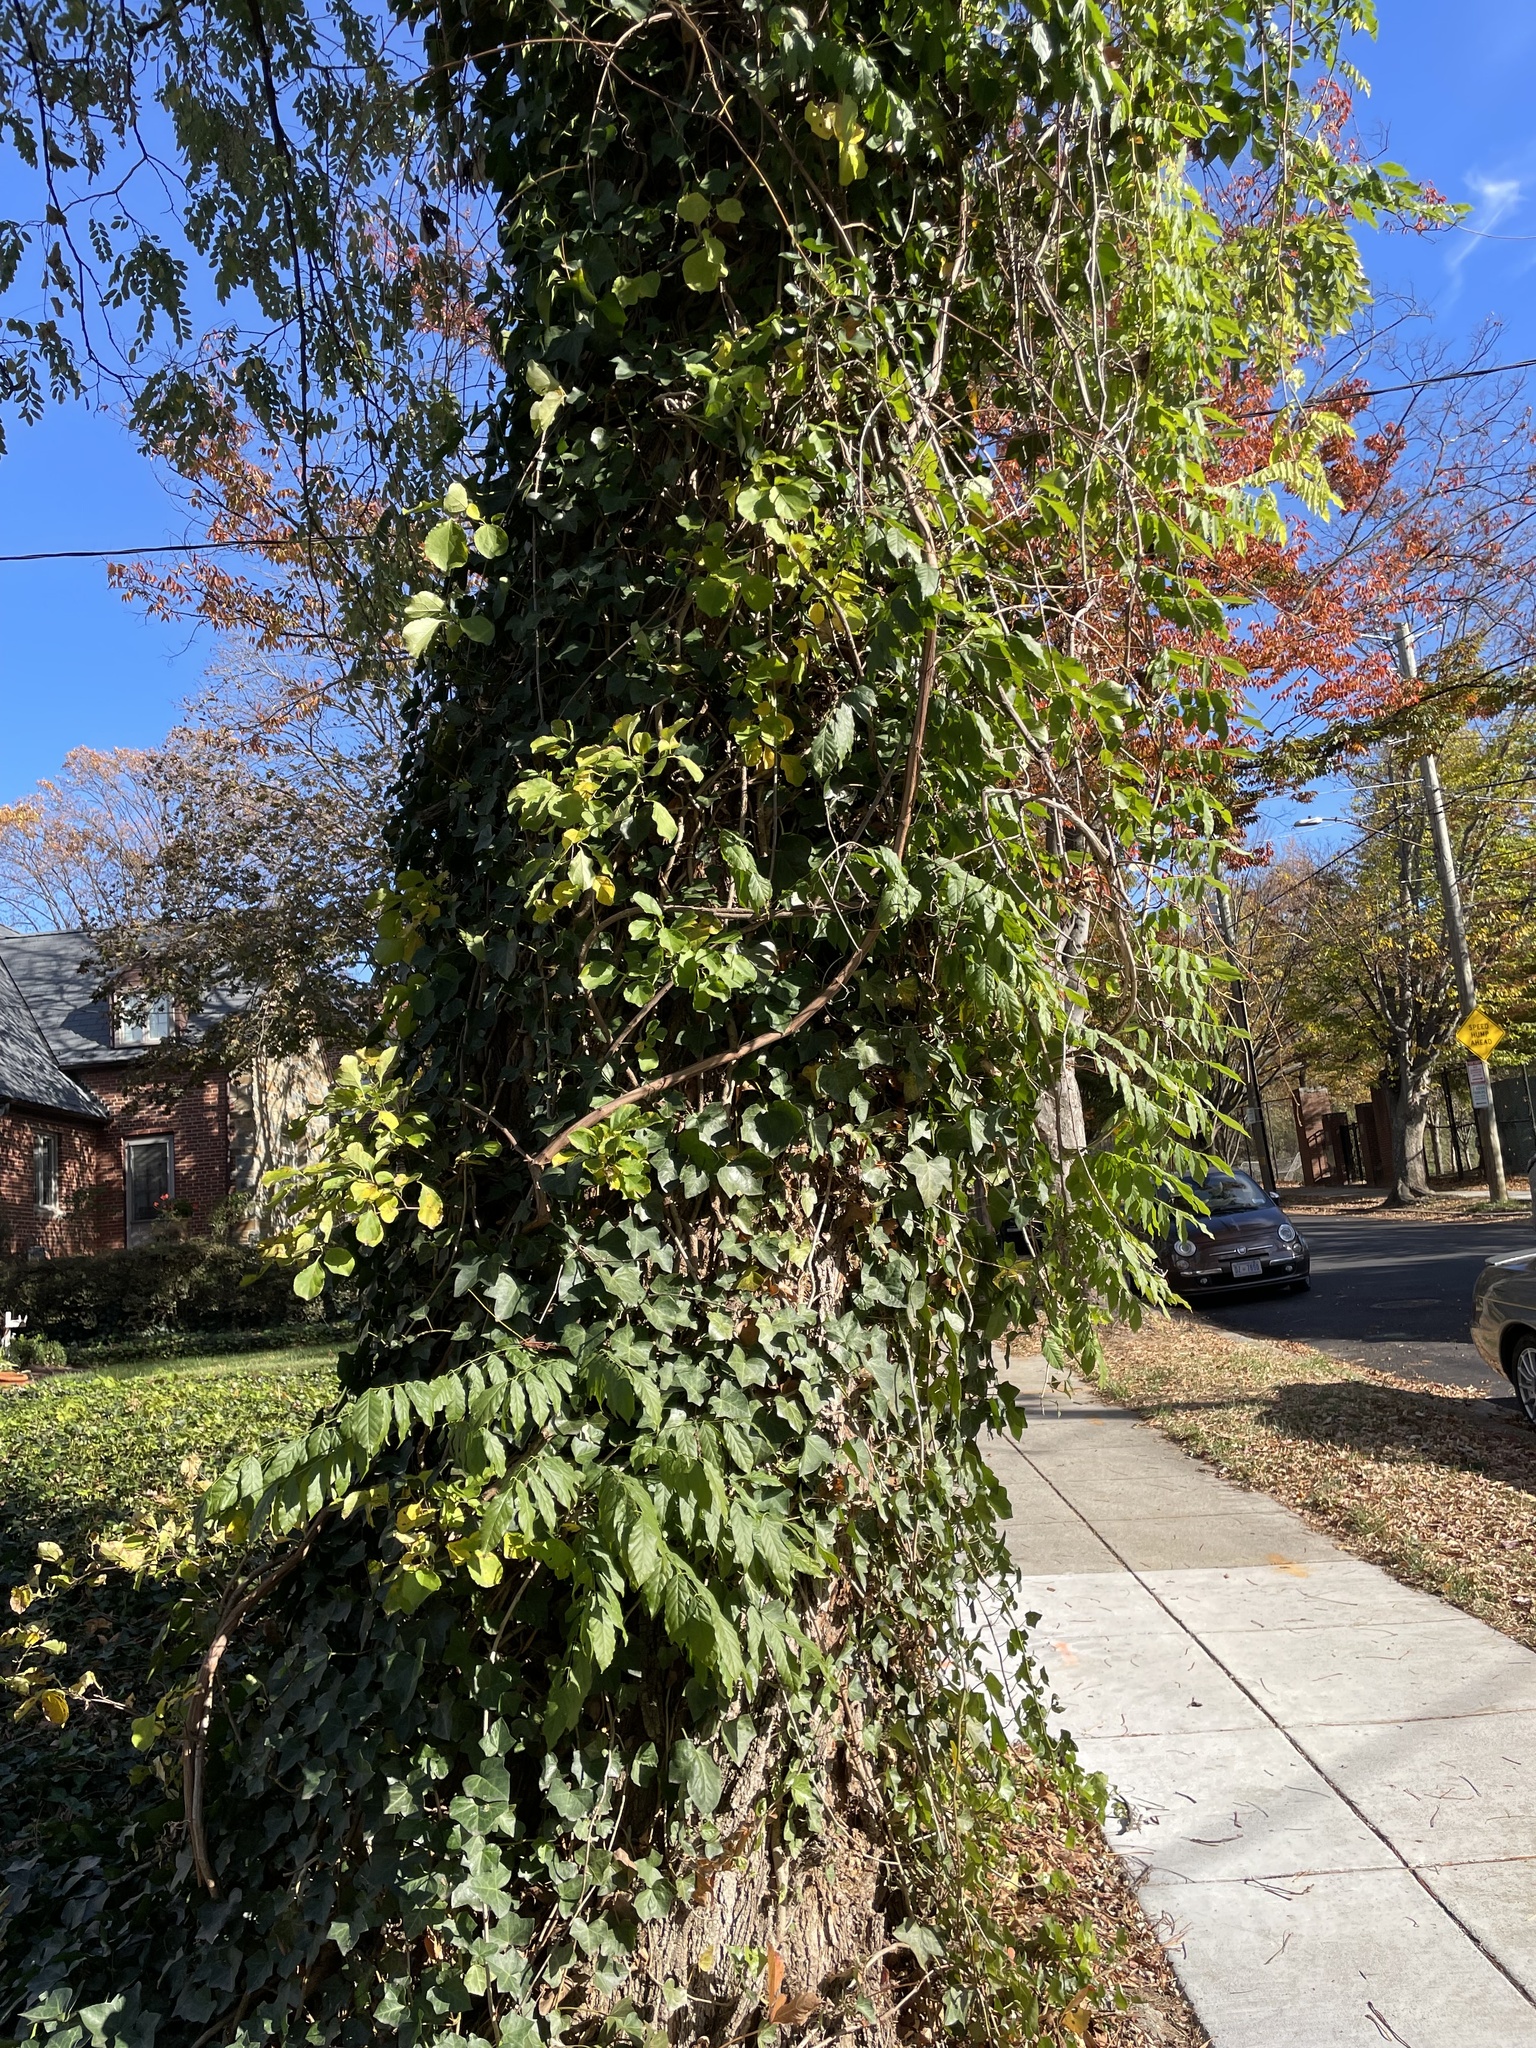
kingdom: Plantae
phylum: Tracheophyta
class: Magnoliopsida
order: Apiales
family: Araliaceae
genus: Hedera
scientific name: Hedera helix
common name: Ivy
